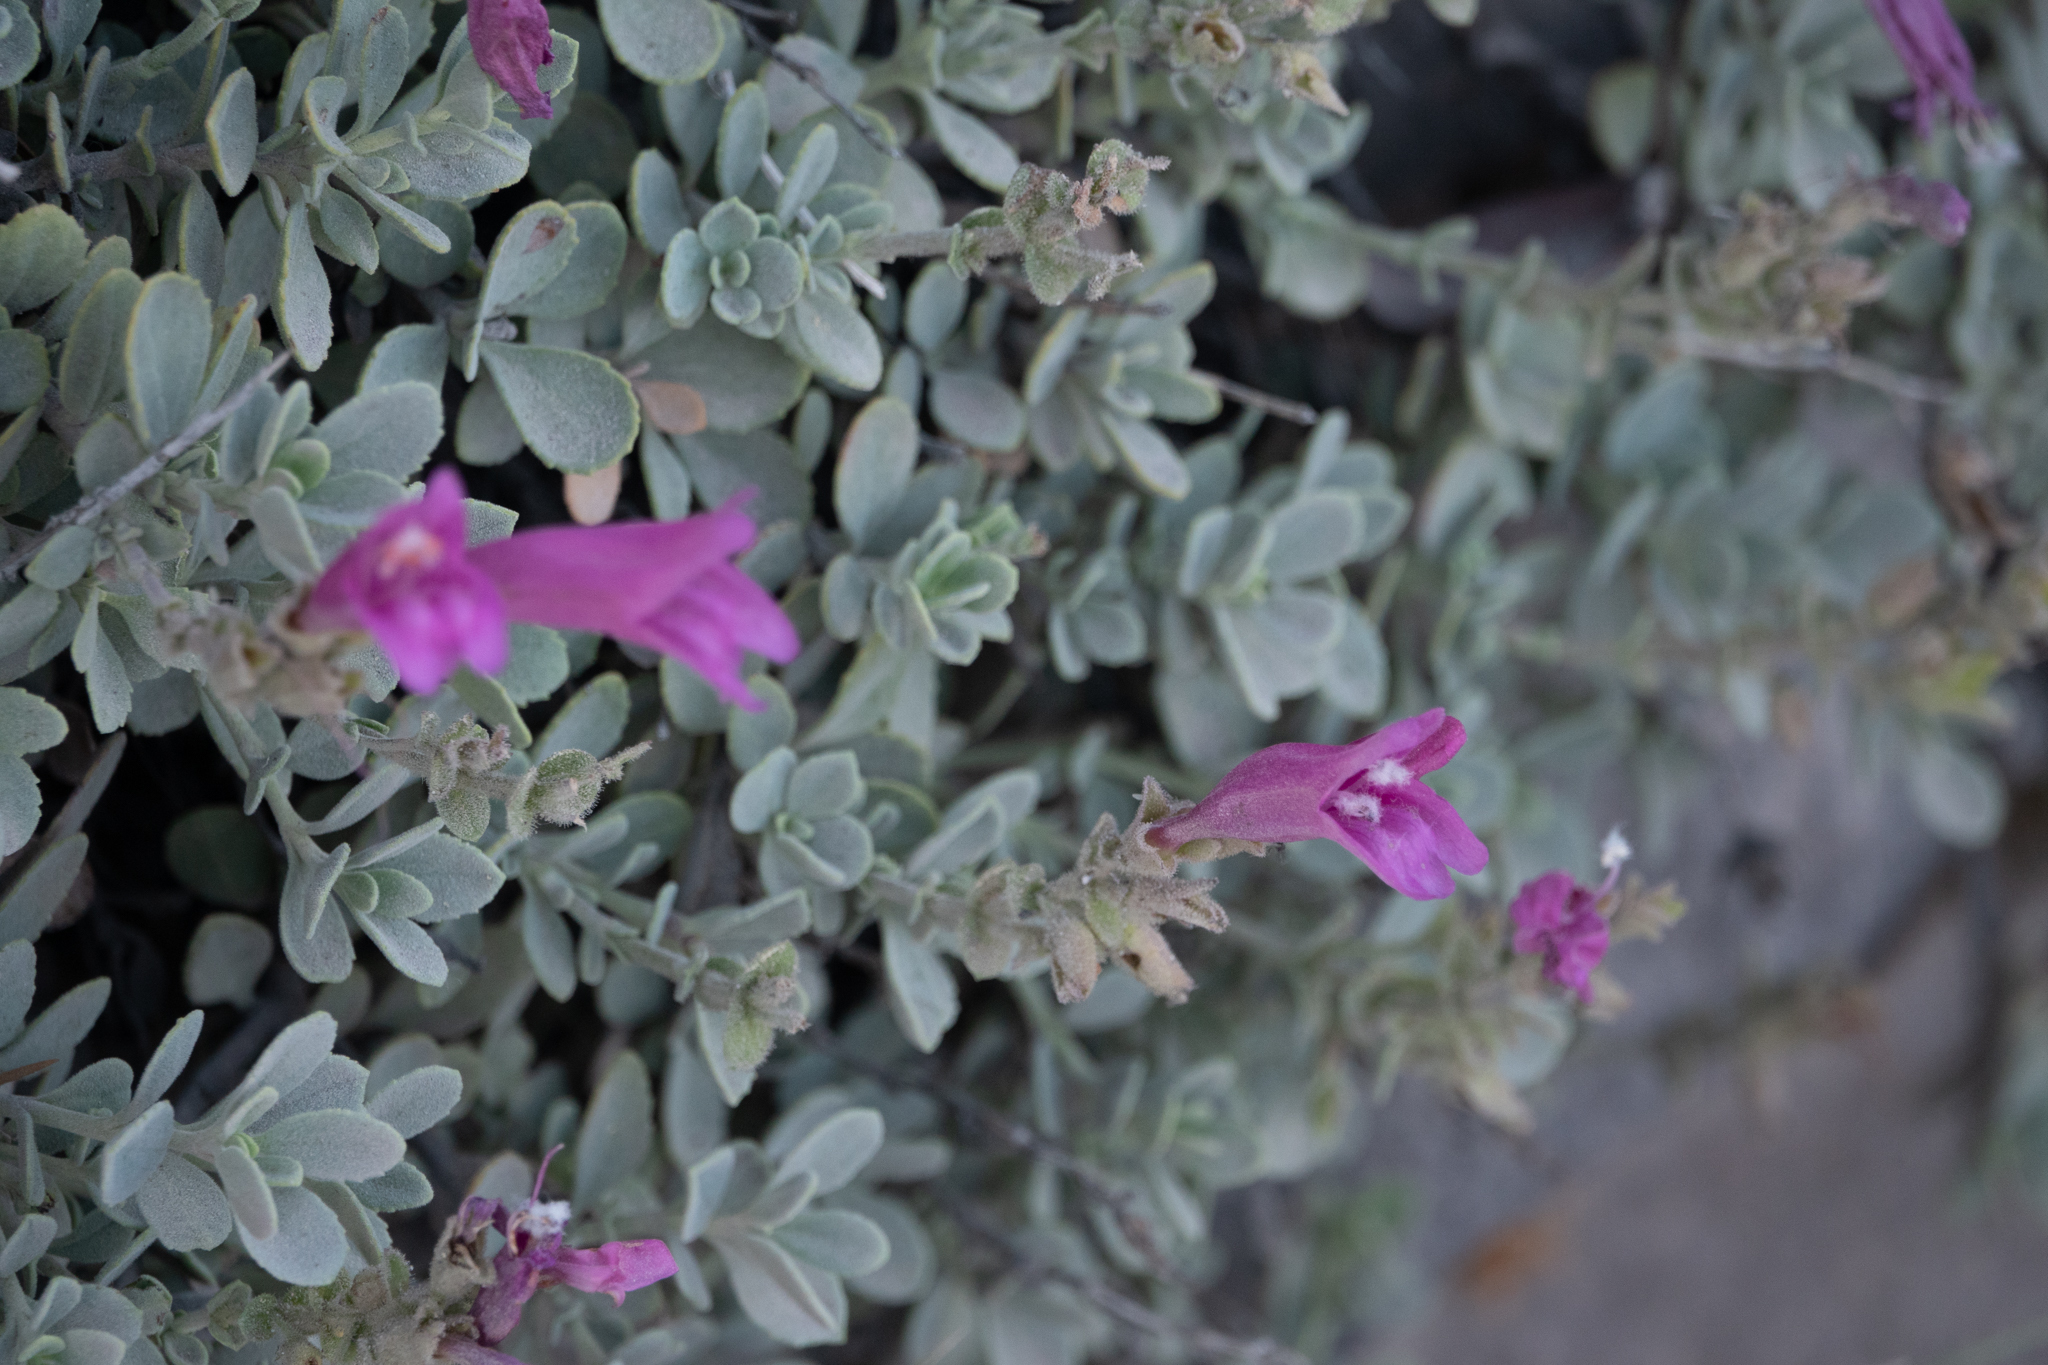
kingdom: Plantae
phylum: Tracheophyta
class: Magnoliopsida
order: Lamiales
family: Plantaginaceae
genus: Penstemon
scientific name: Penstemon rupicola
